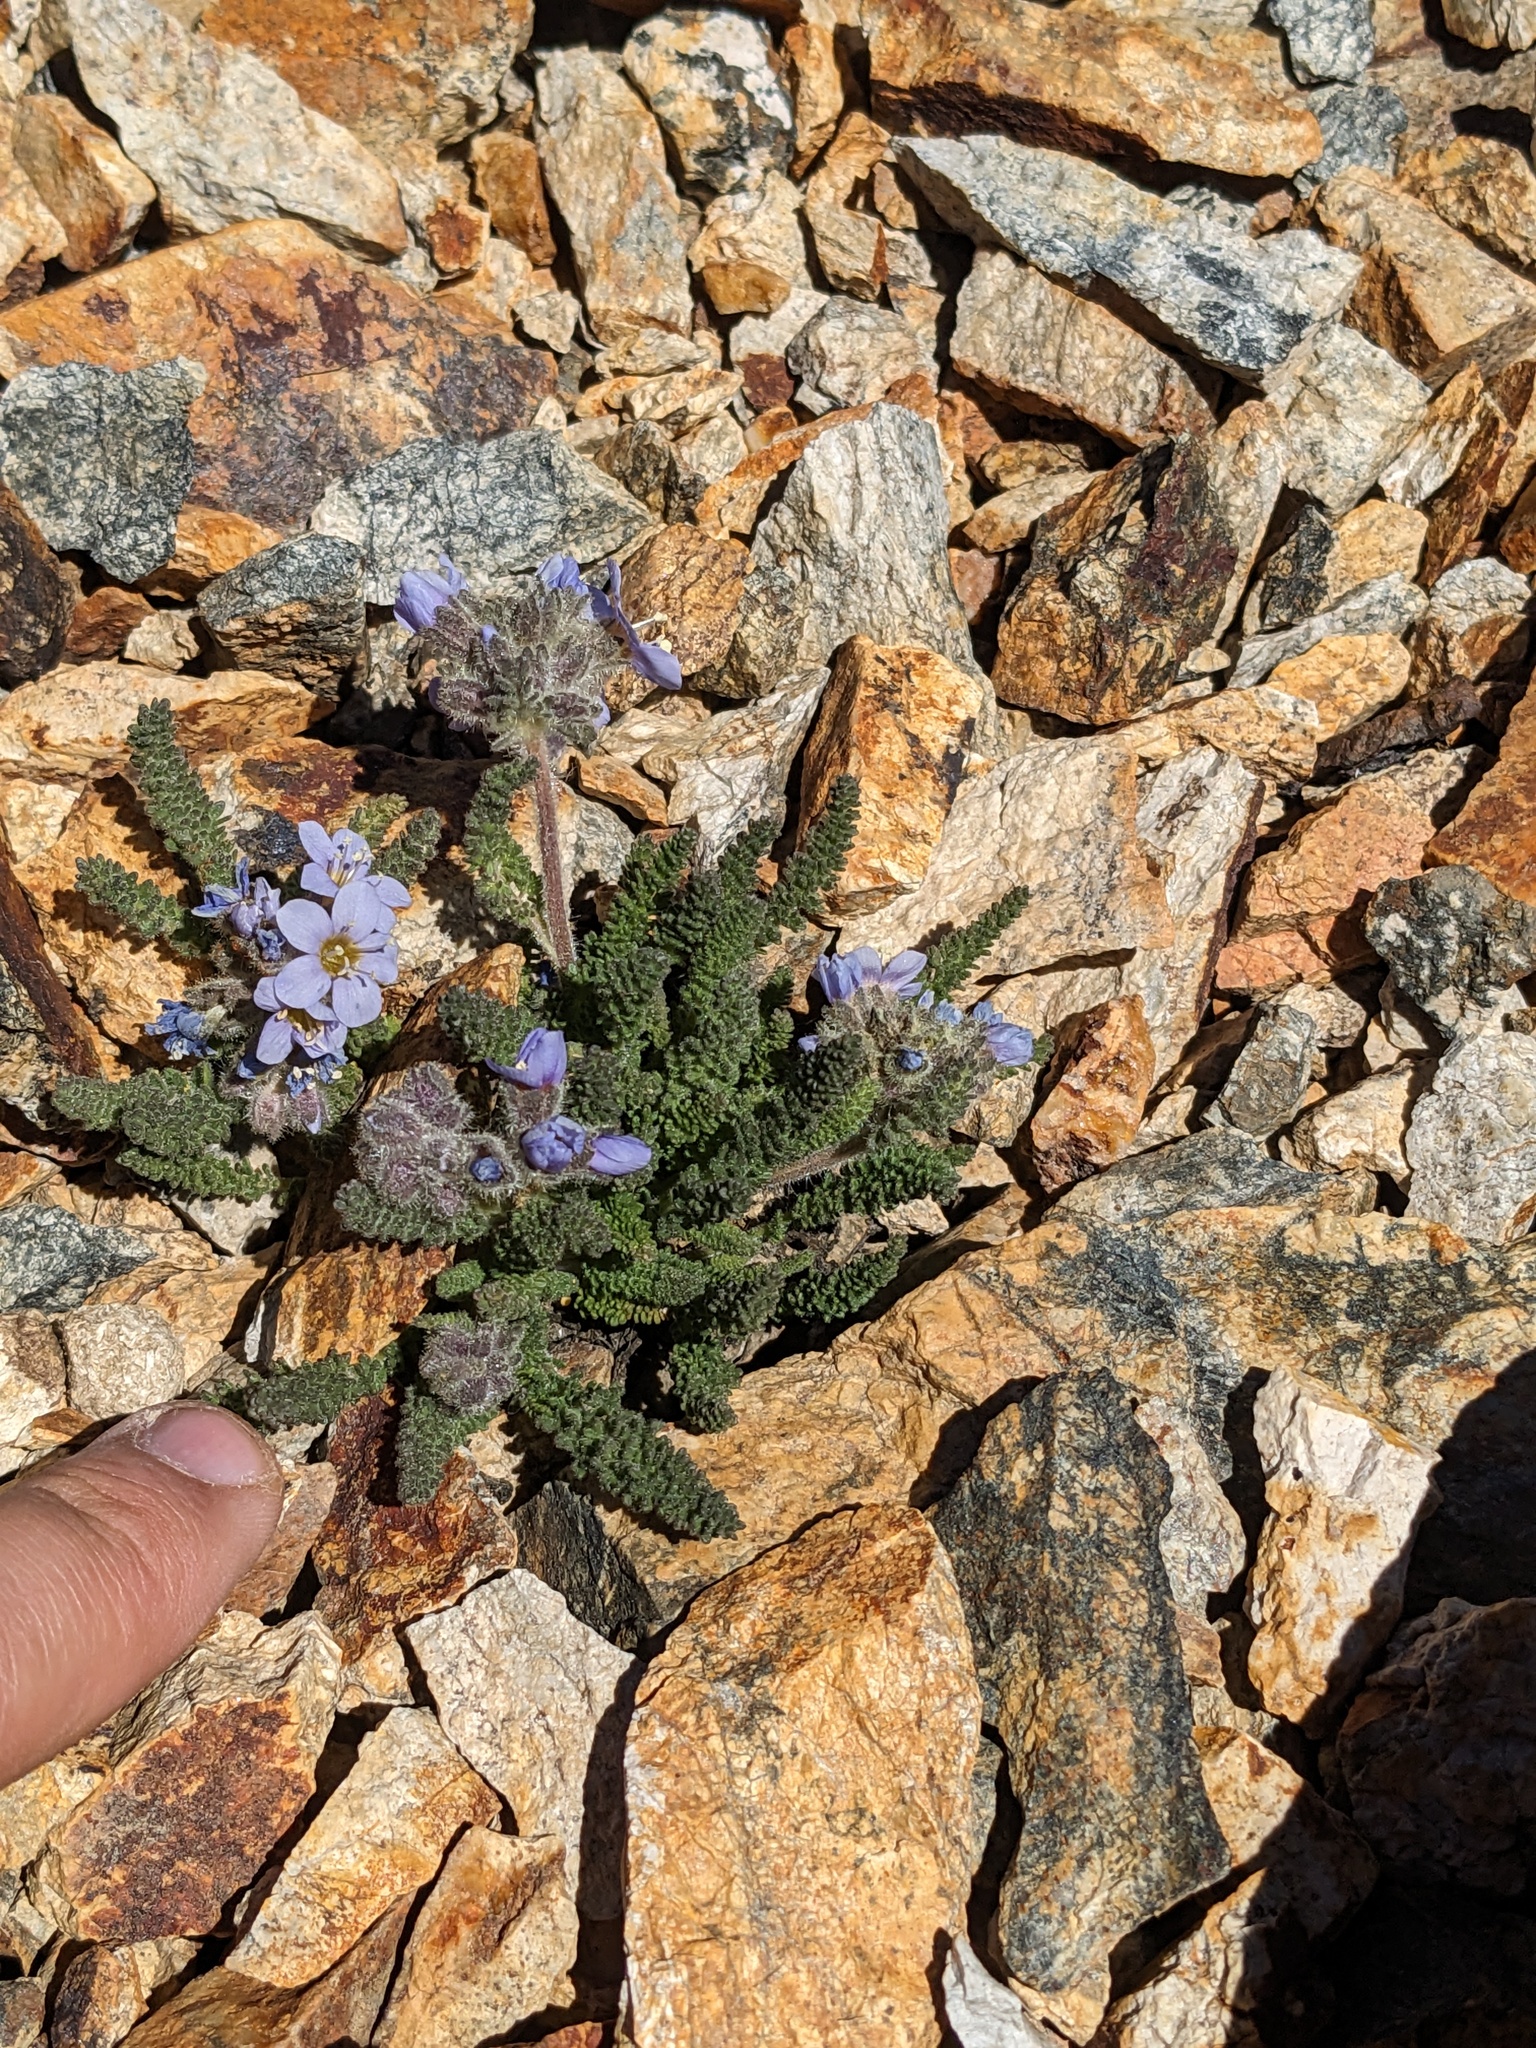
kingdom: Plantae
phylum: Tracheophyta
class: Magnoliopsida
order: Ericales
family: Polemoniaceae
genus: Polemonium
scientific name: Polemonium chartaceum
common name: Mason's sky-pilot
